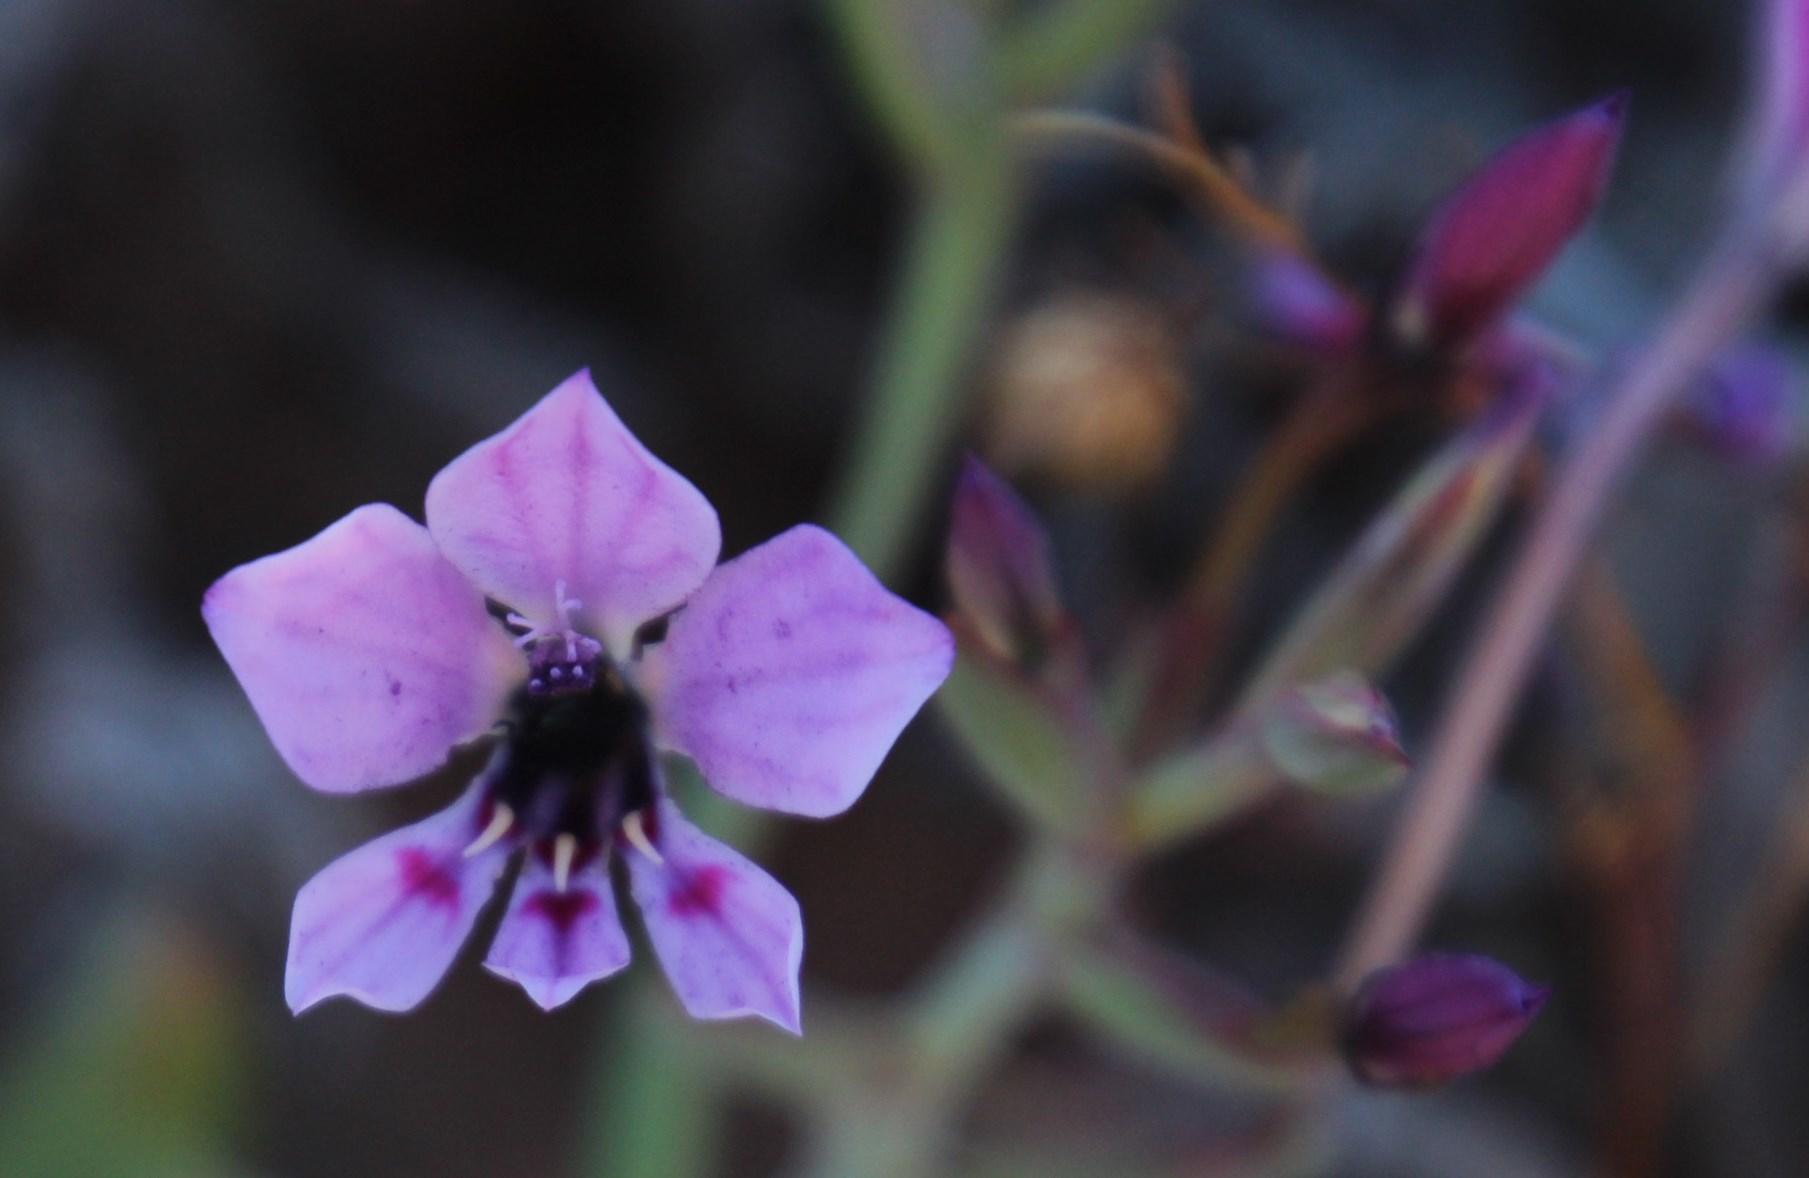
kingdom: Plantae
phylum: Tracheophyta
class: Liliopsida
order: Asparagales
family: Iridaceae
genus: Lapeirousia
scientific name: Lapeirousia fabricii
